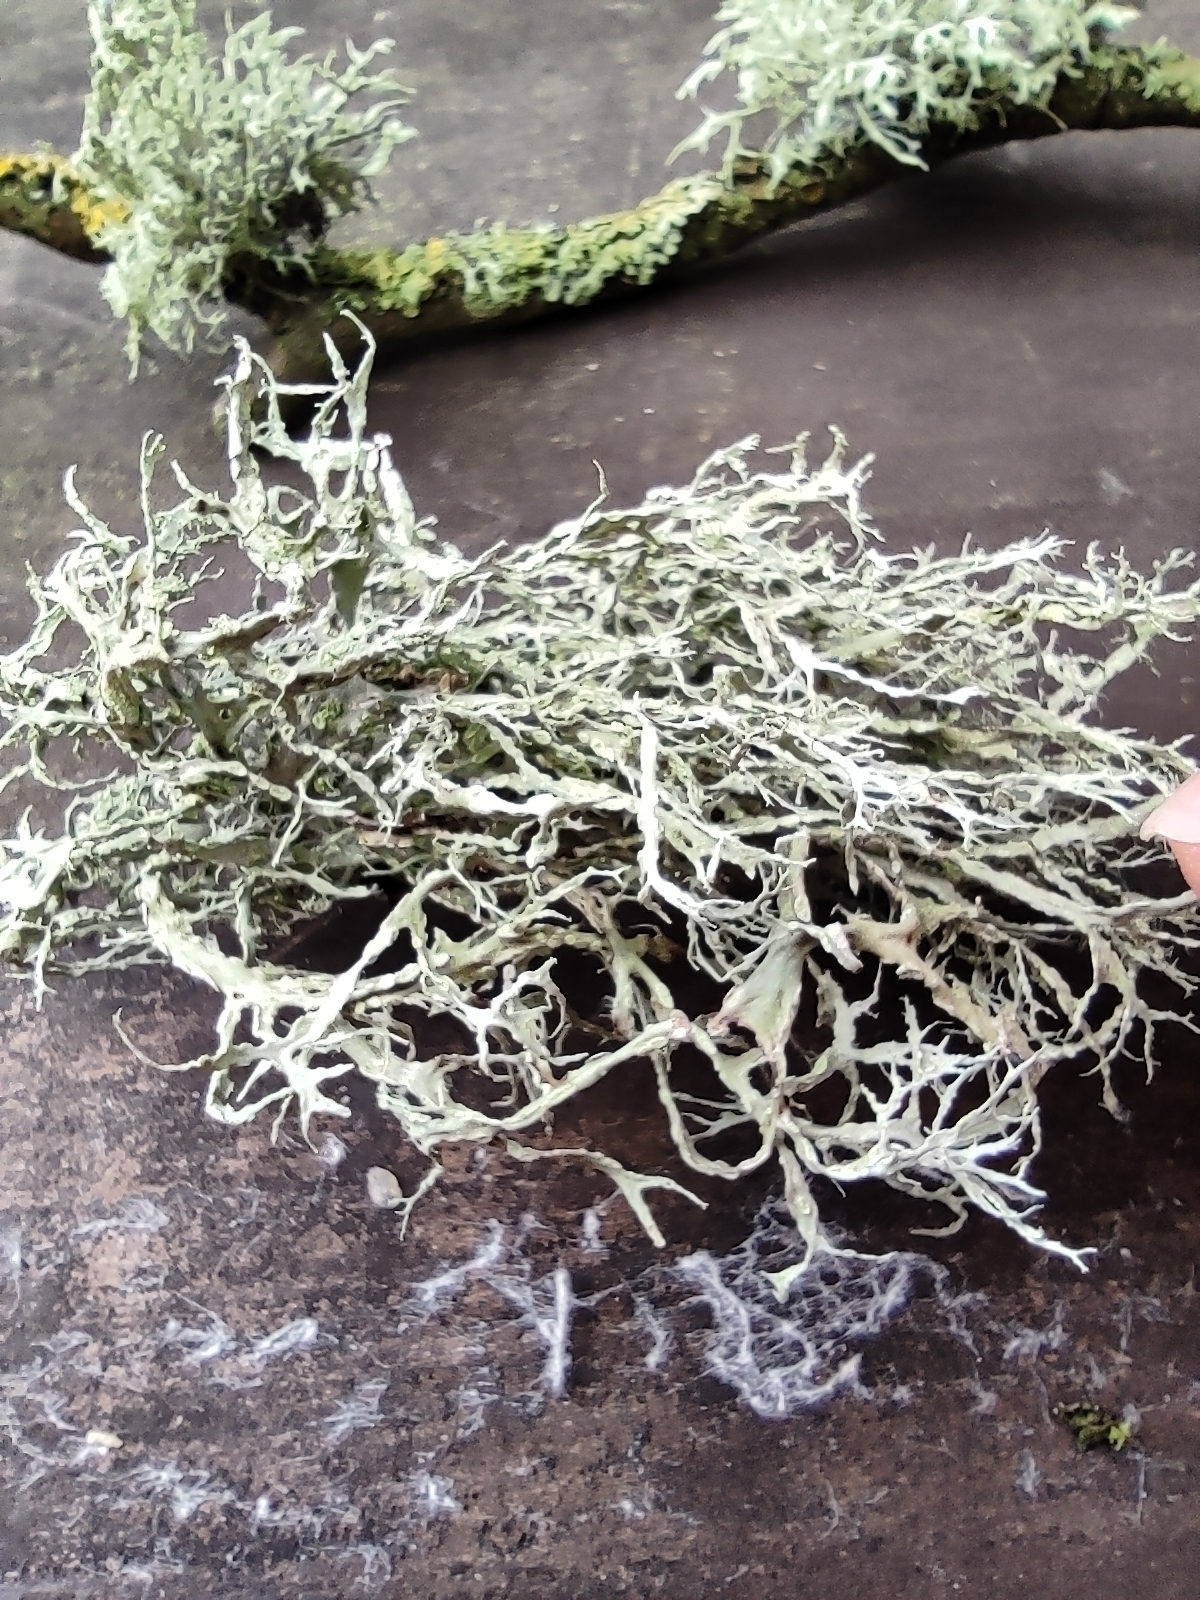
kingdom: Fungi
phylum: Ascomycota
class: Lecanoromycetes
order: Lecanorales
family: Ramalinaceae
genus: Ramalina
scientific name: Ramalina farinacea
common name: Farinose cartilage lichen
